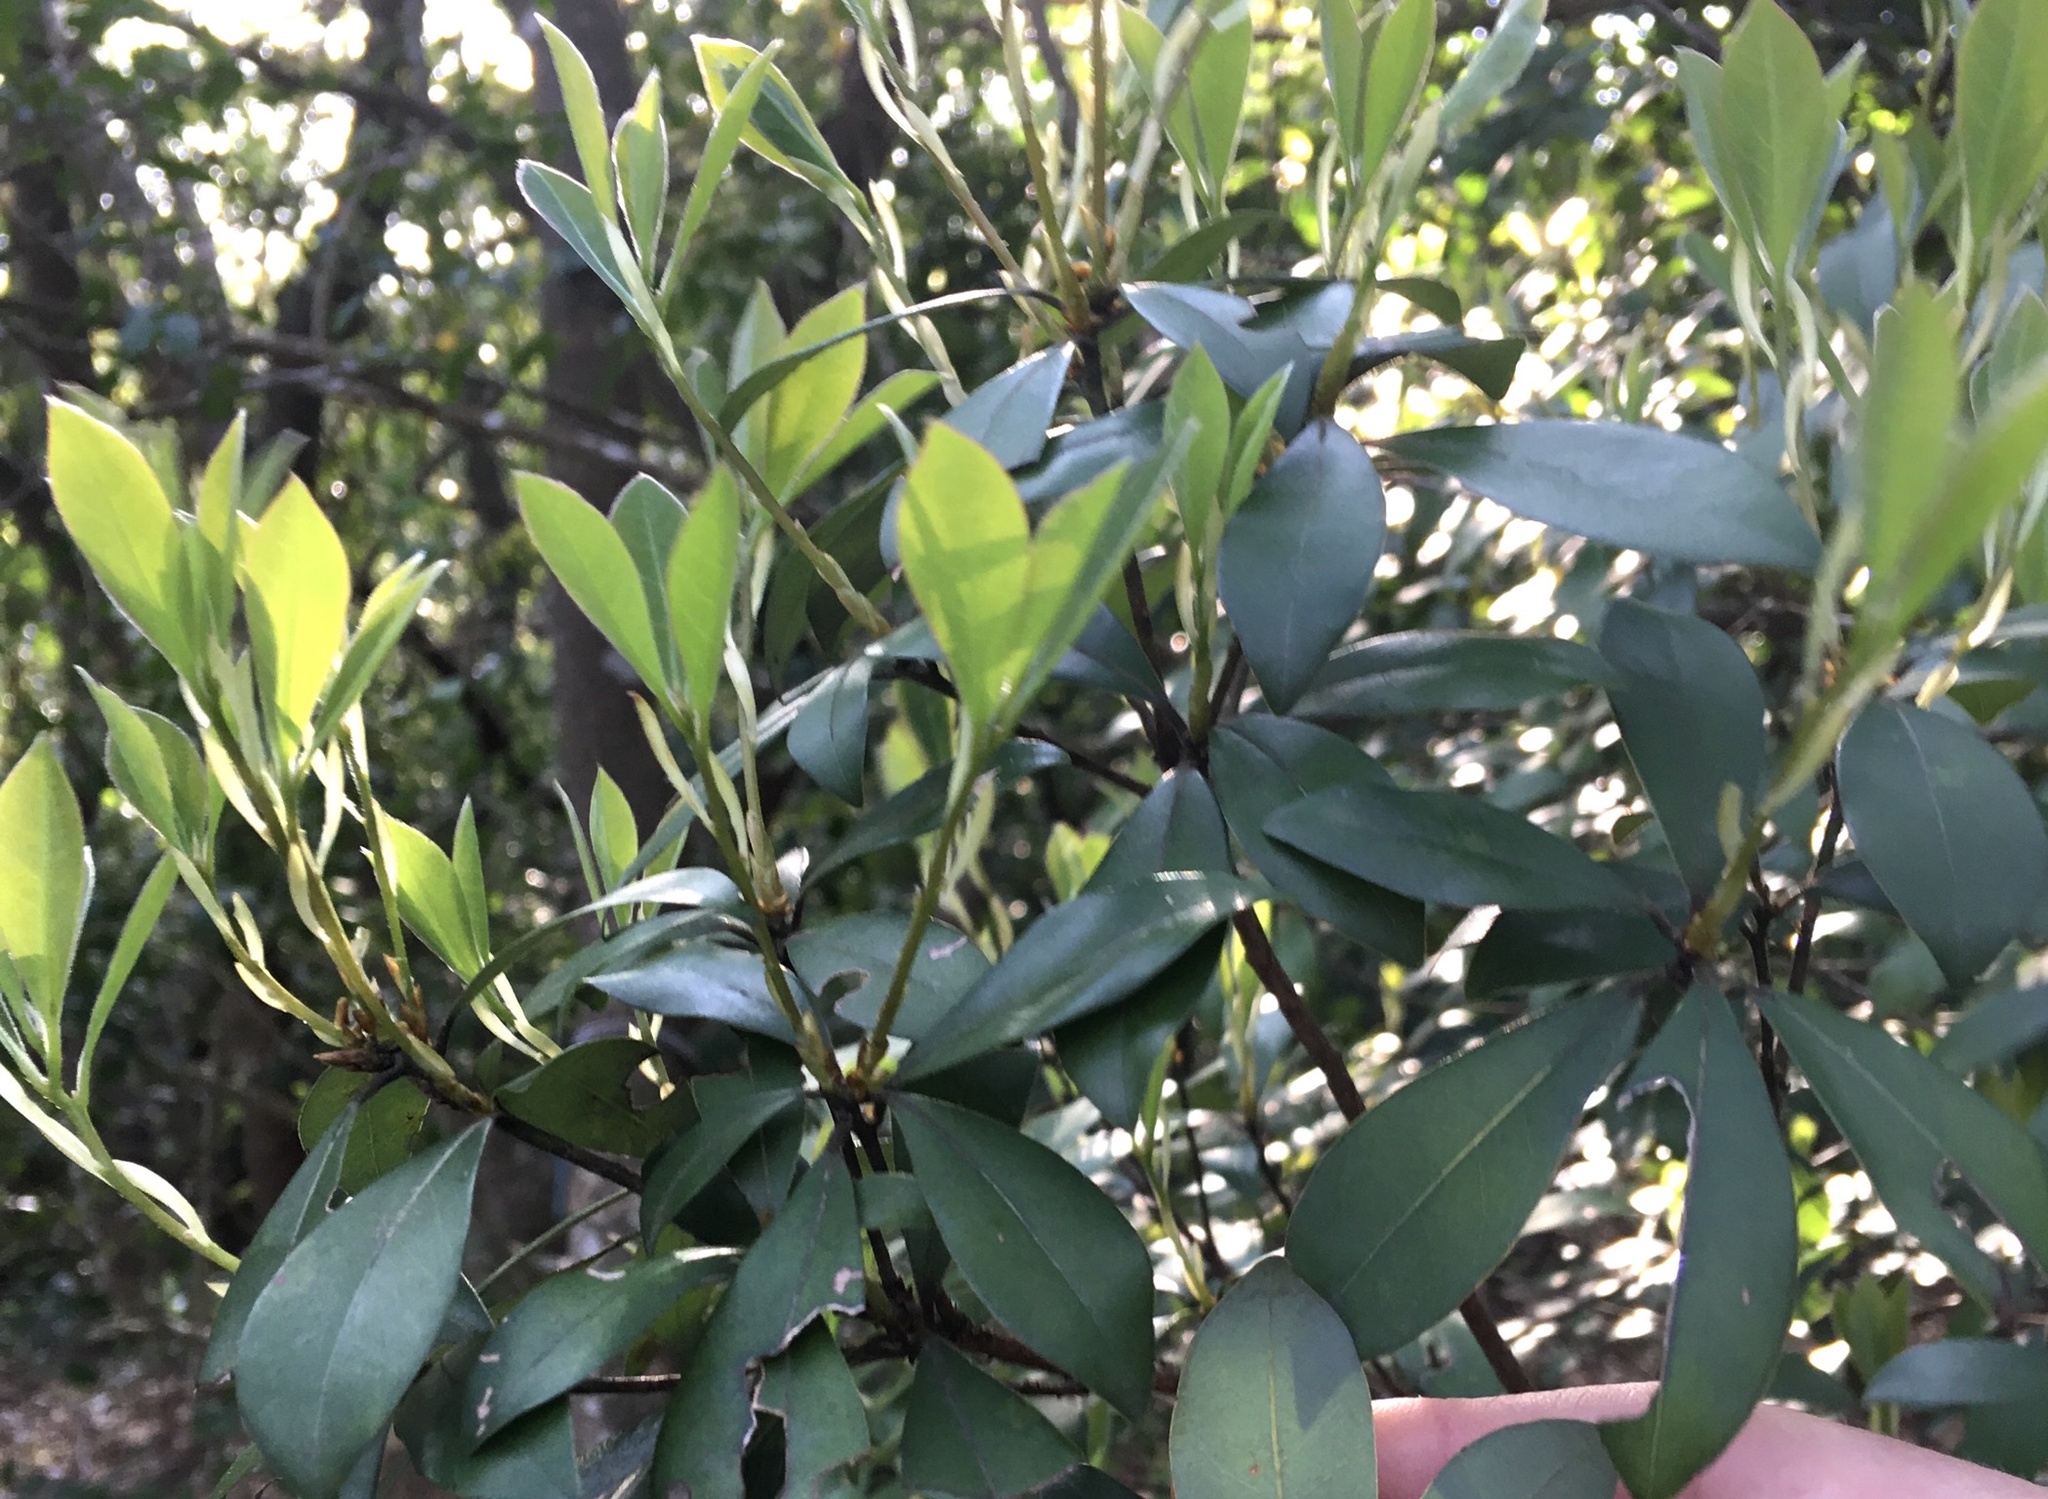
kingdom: Plantae
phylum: Tracheophyta
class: Magnoliopsida
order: Laurales
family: Lauraceae
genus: Litsea
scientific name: Litsea rotundifolia
